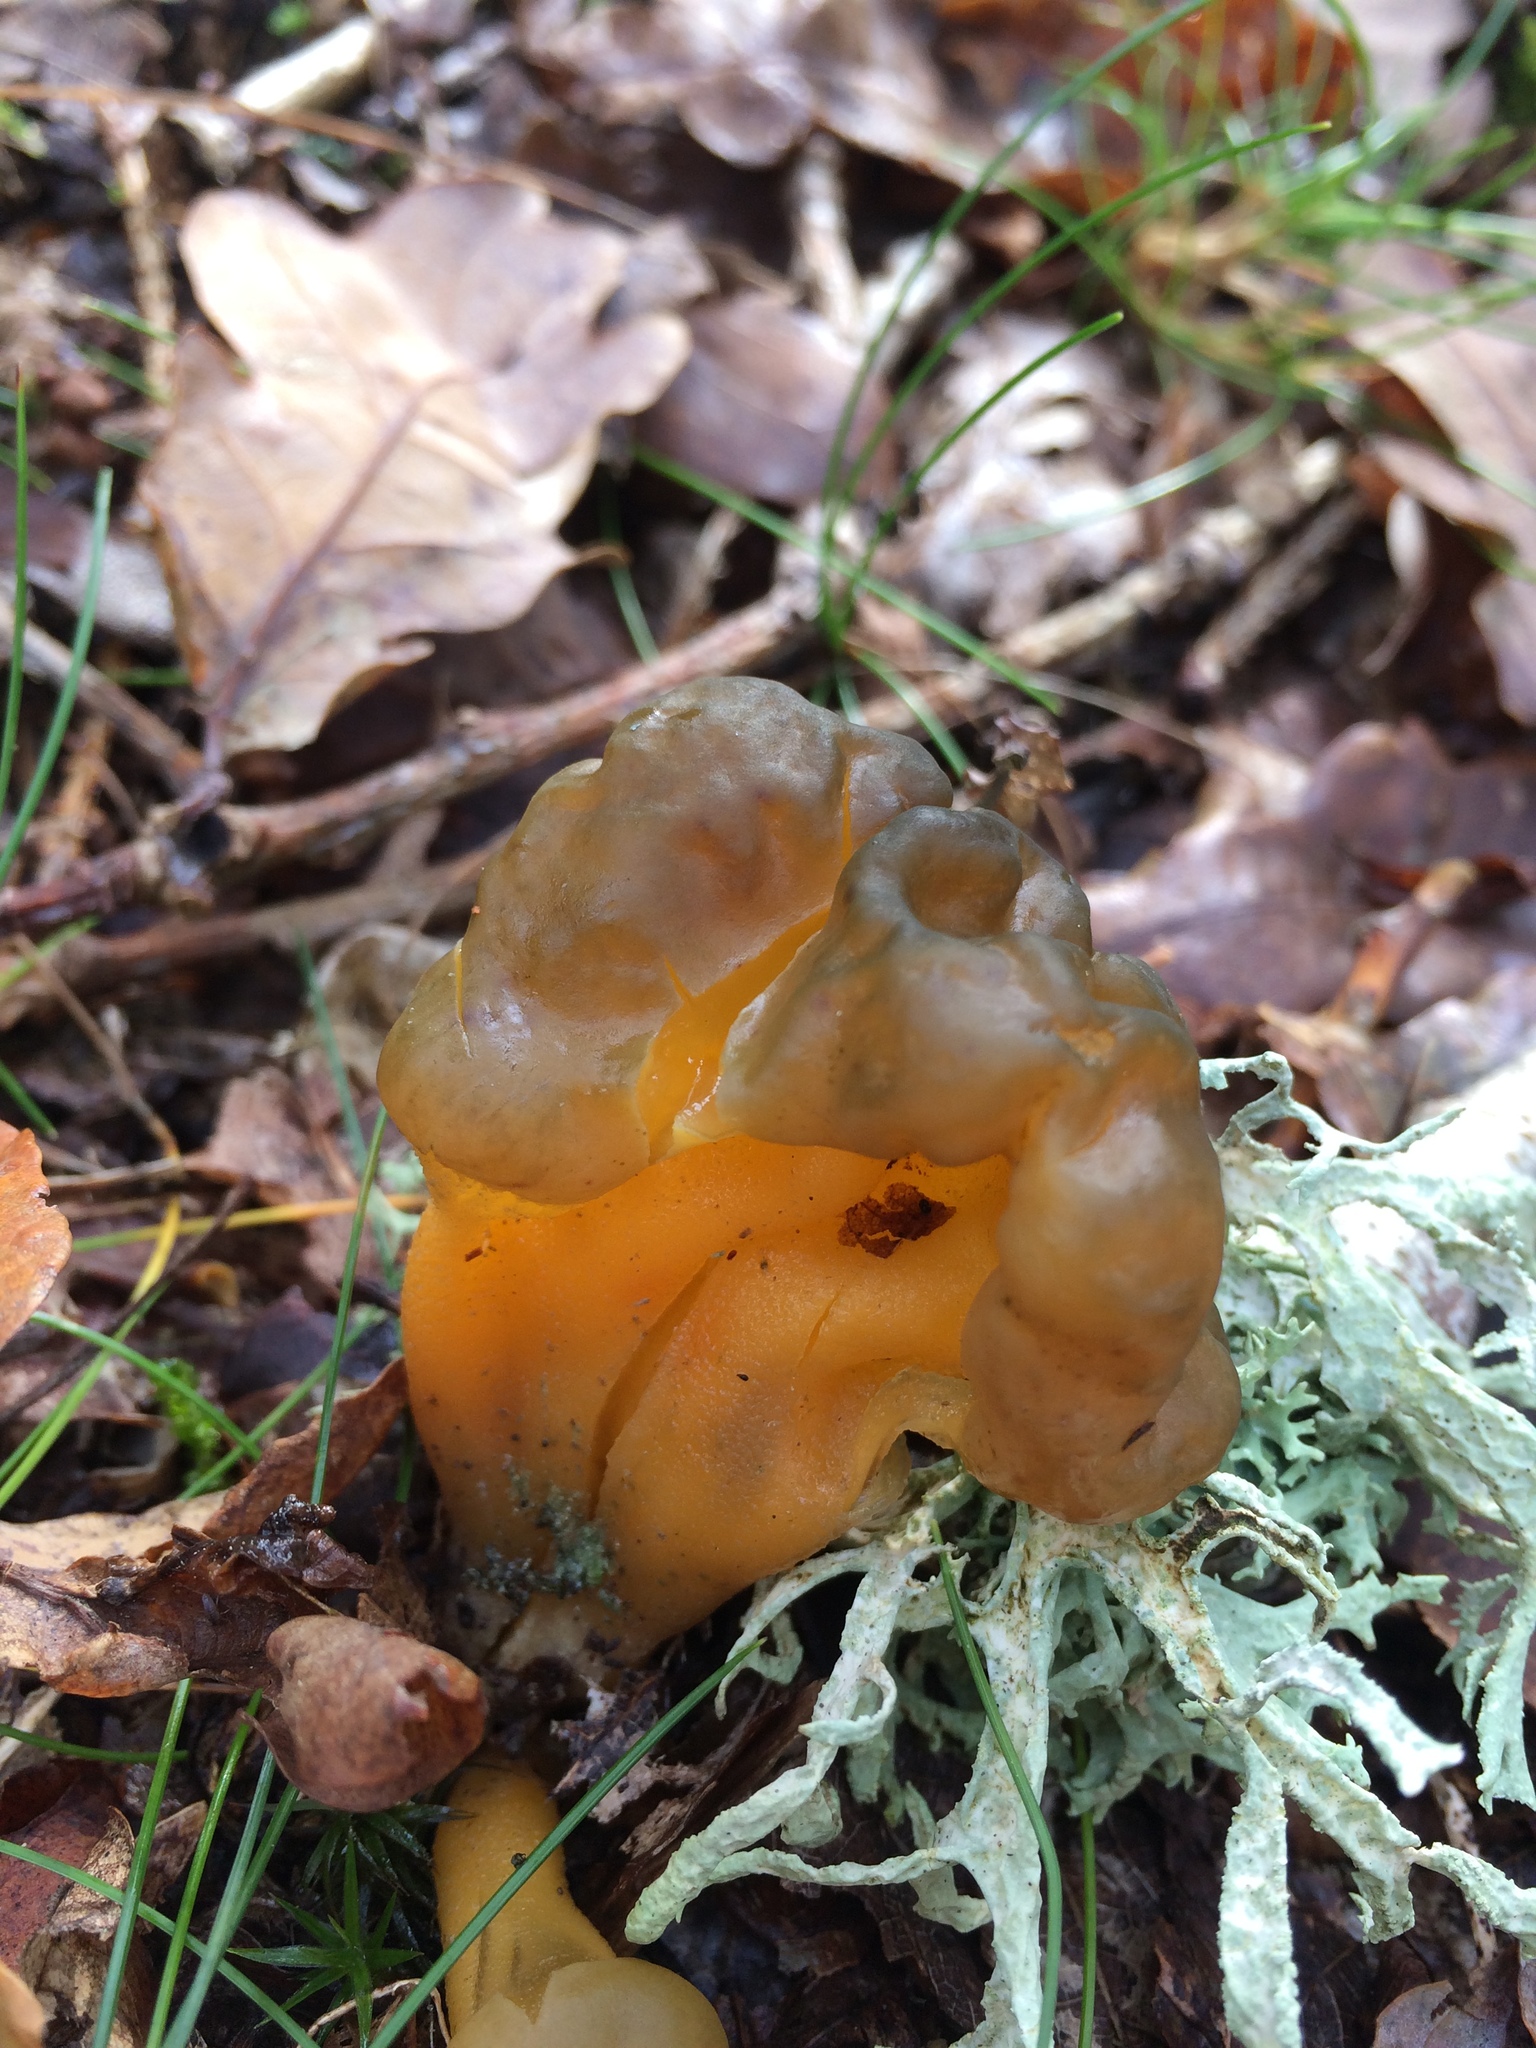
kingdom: Fungi
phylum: Ascomycota
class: Leotiomycetes
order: Leotiales
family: Leotiaceae
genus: Leotia
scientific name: Leotia lubrica
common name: Jellybaby
